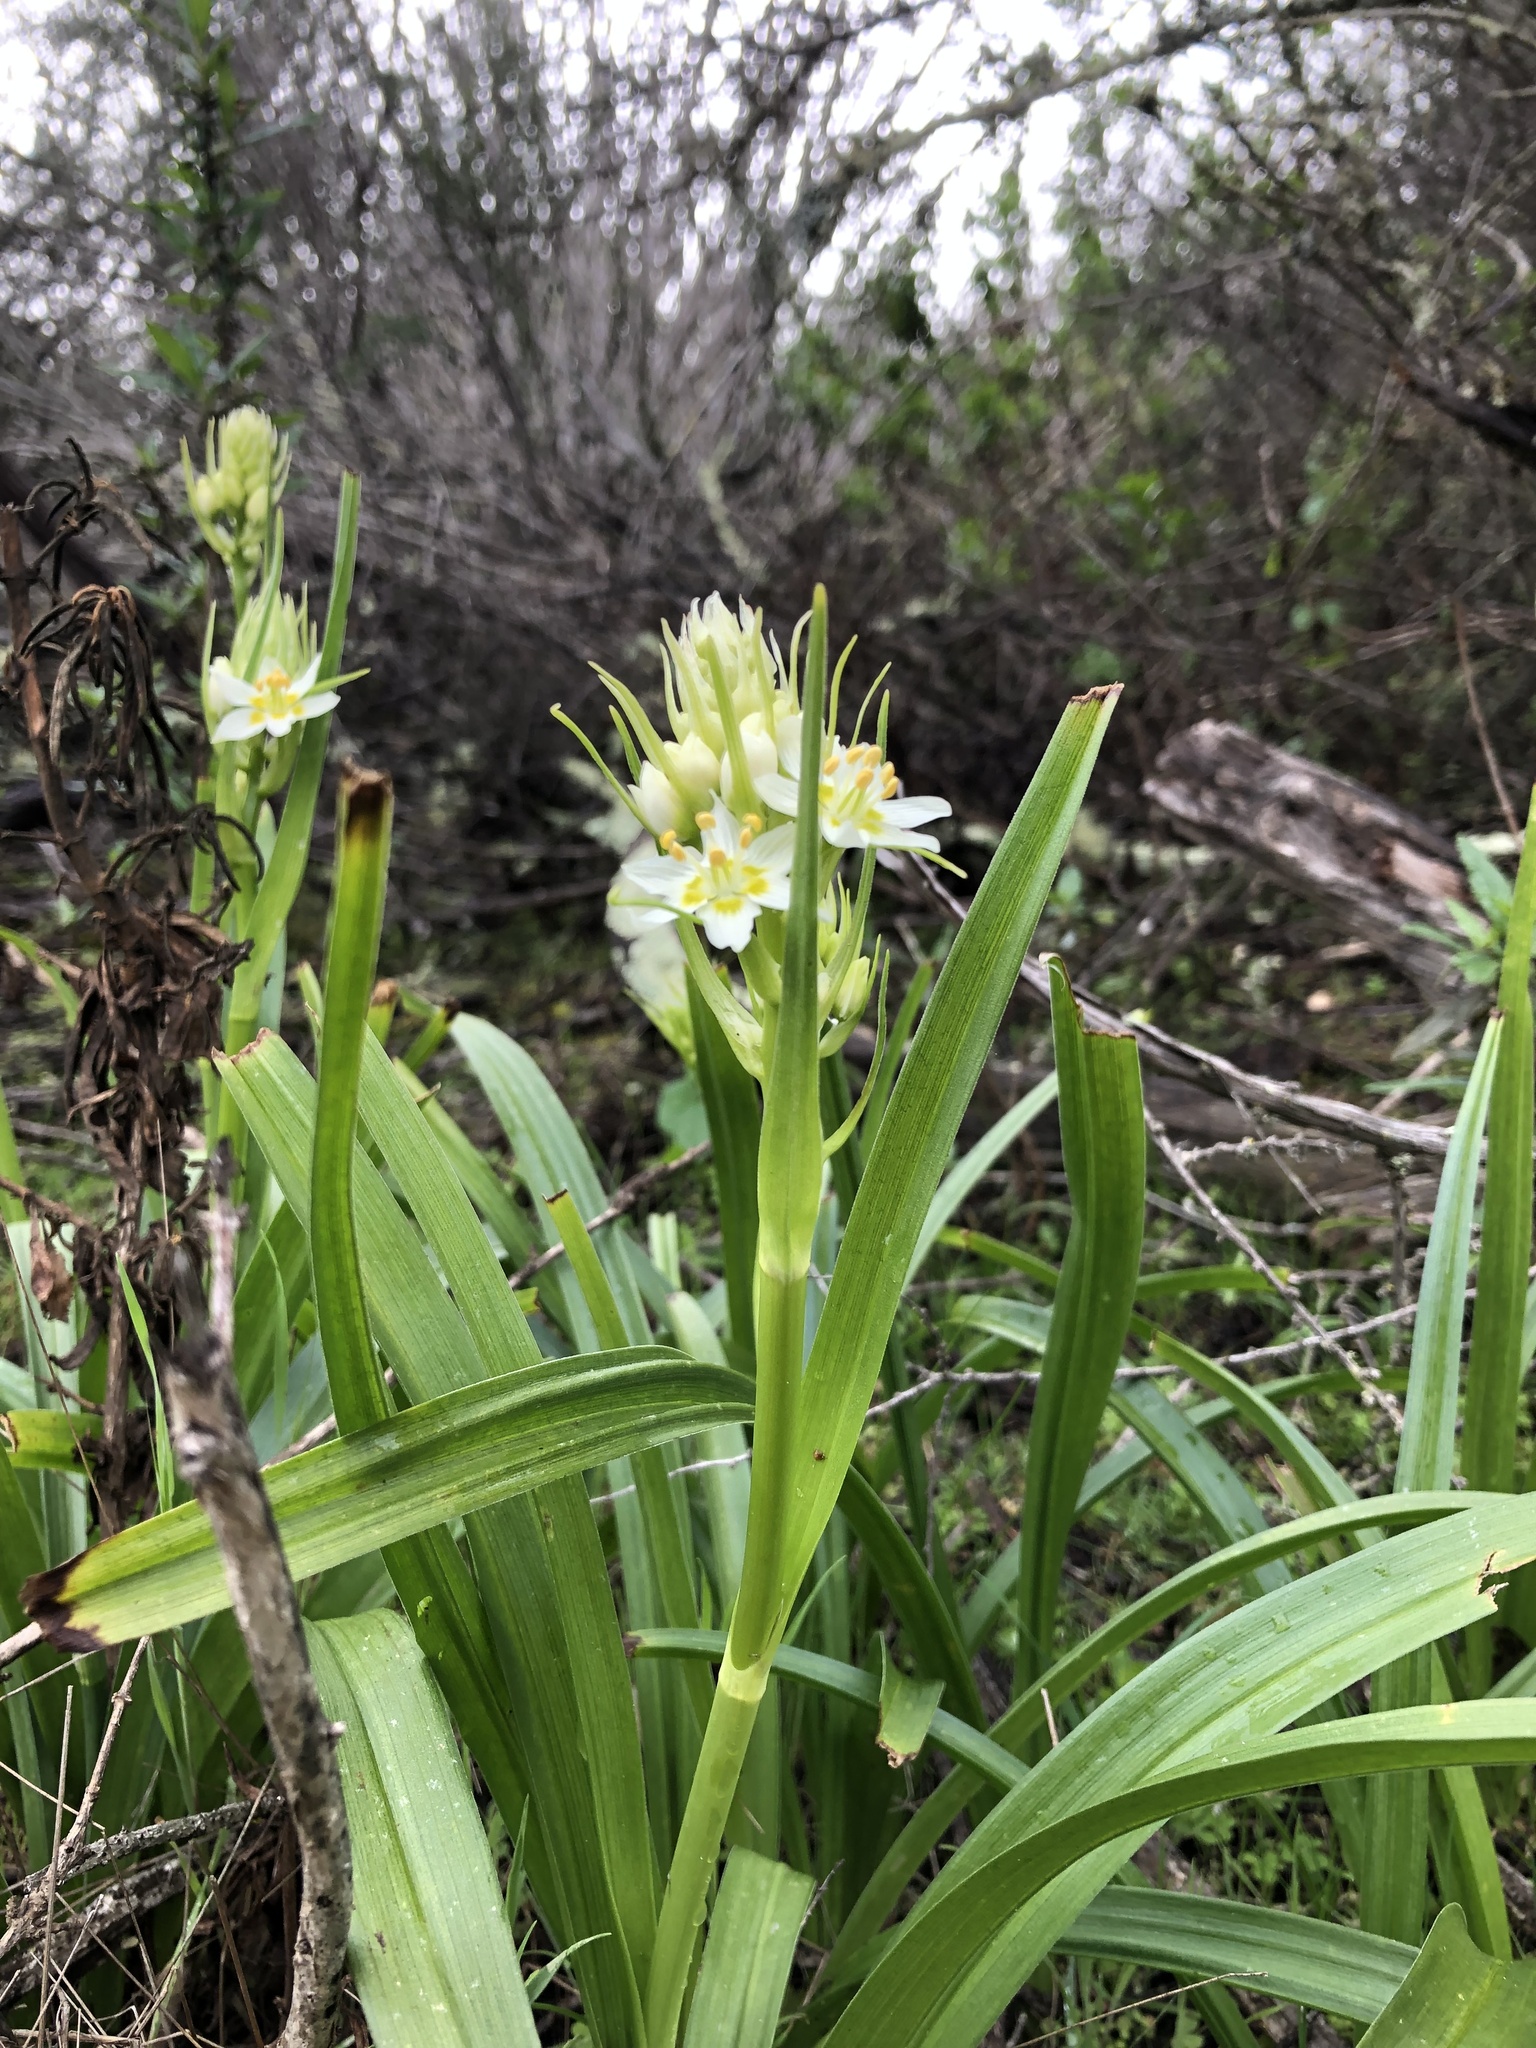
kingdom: Plantae
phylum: Tracheophyta
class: Liliopsida
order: Liliales
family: Melanthiaceae
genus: Toxicoscordion
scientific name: Toxicoscordion fremontii
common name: Fremont's death camas
